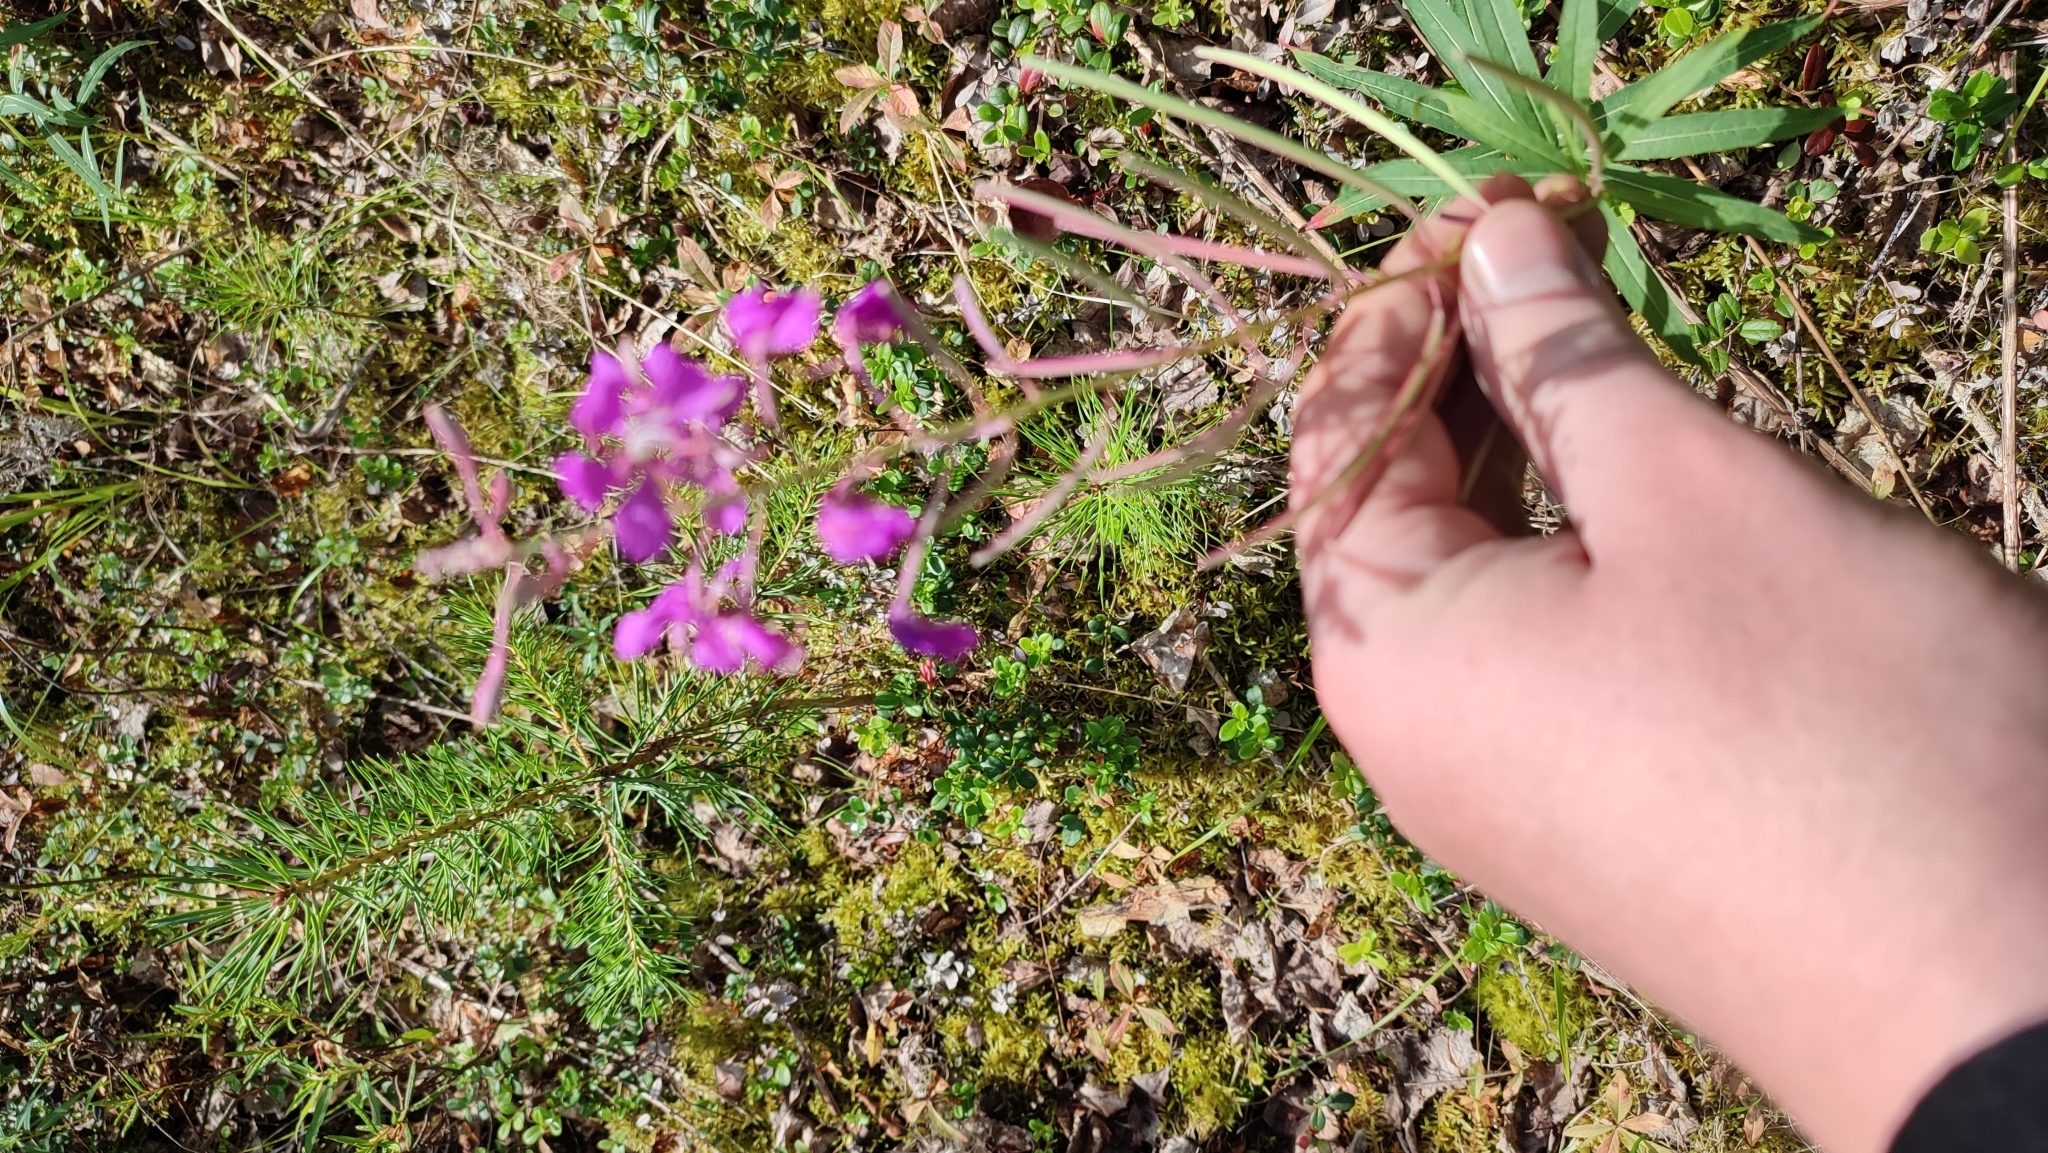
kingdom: Plantae
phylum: Tracheophyta
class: Magnoliopsida
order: Myrtales
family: Onagraceae
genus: Chamaenerion
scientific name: Chamaenerion angustifolium
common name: Fireweed
